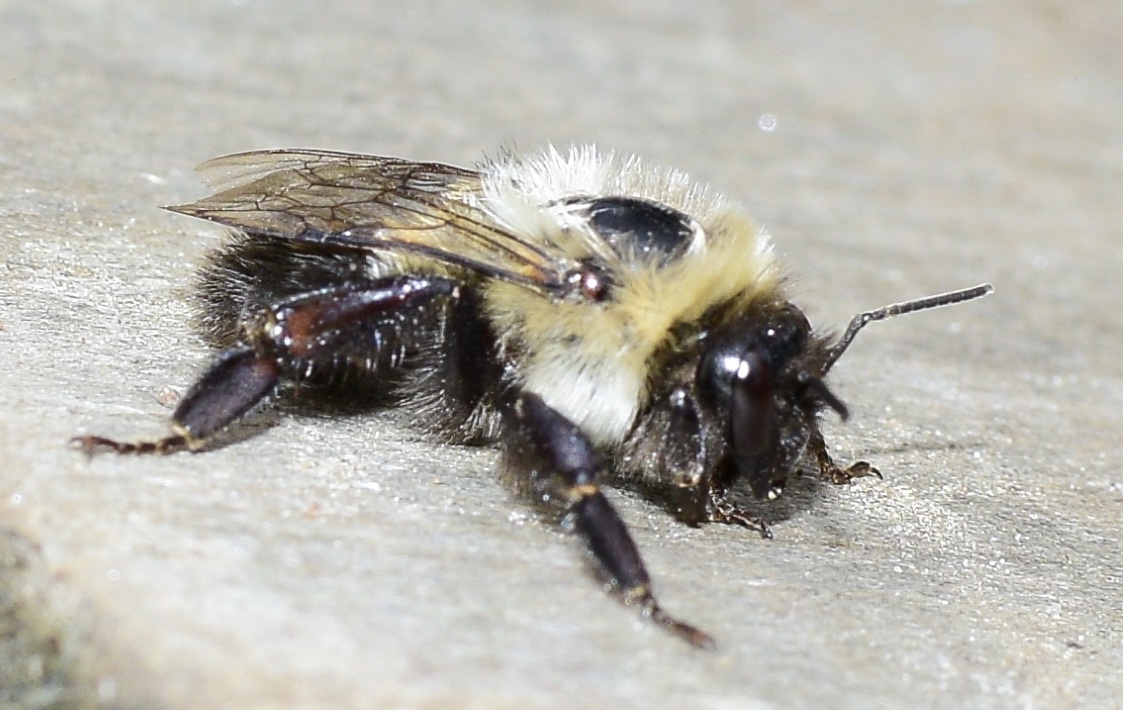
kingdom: Animalia
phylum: Arthropoda
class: Insecta
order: Hymenoptera
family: Apidae
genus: Bombus
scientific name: Bombus impatiens
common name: Common eastern bumble bee
